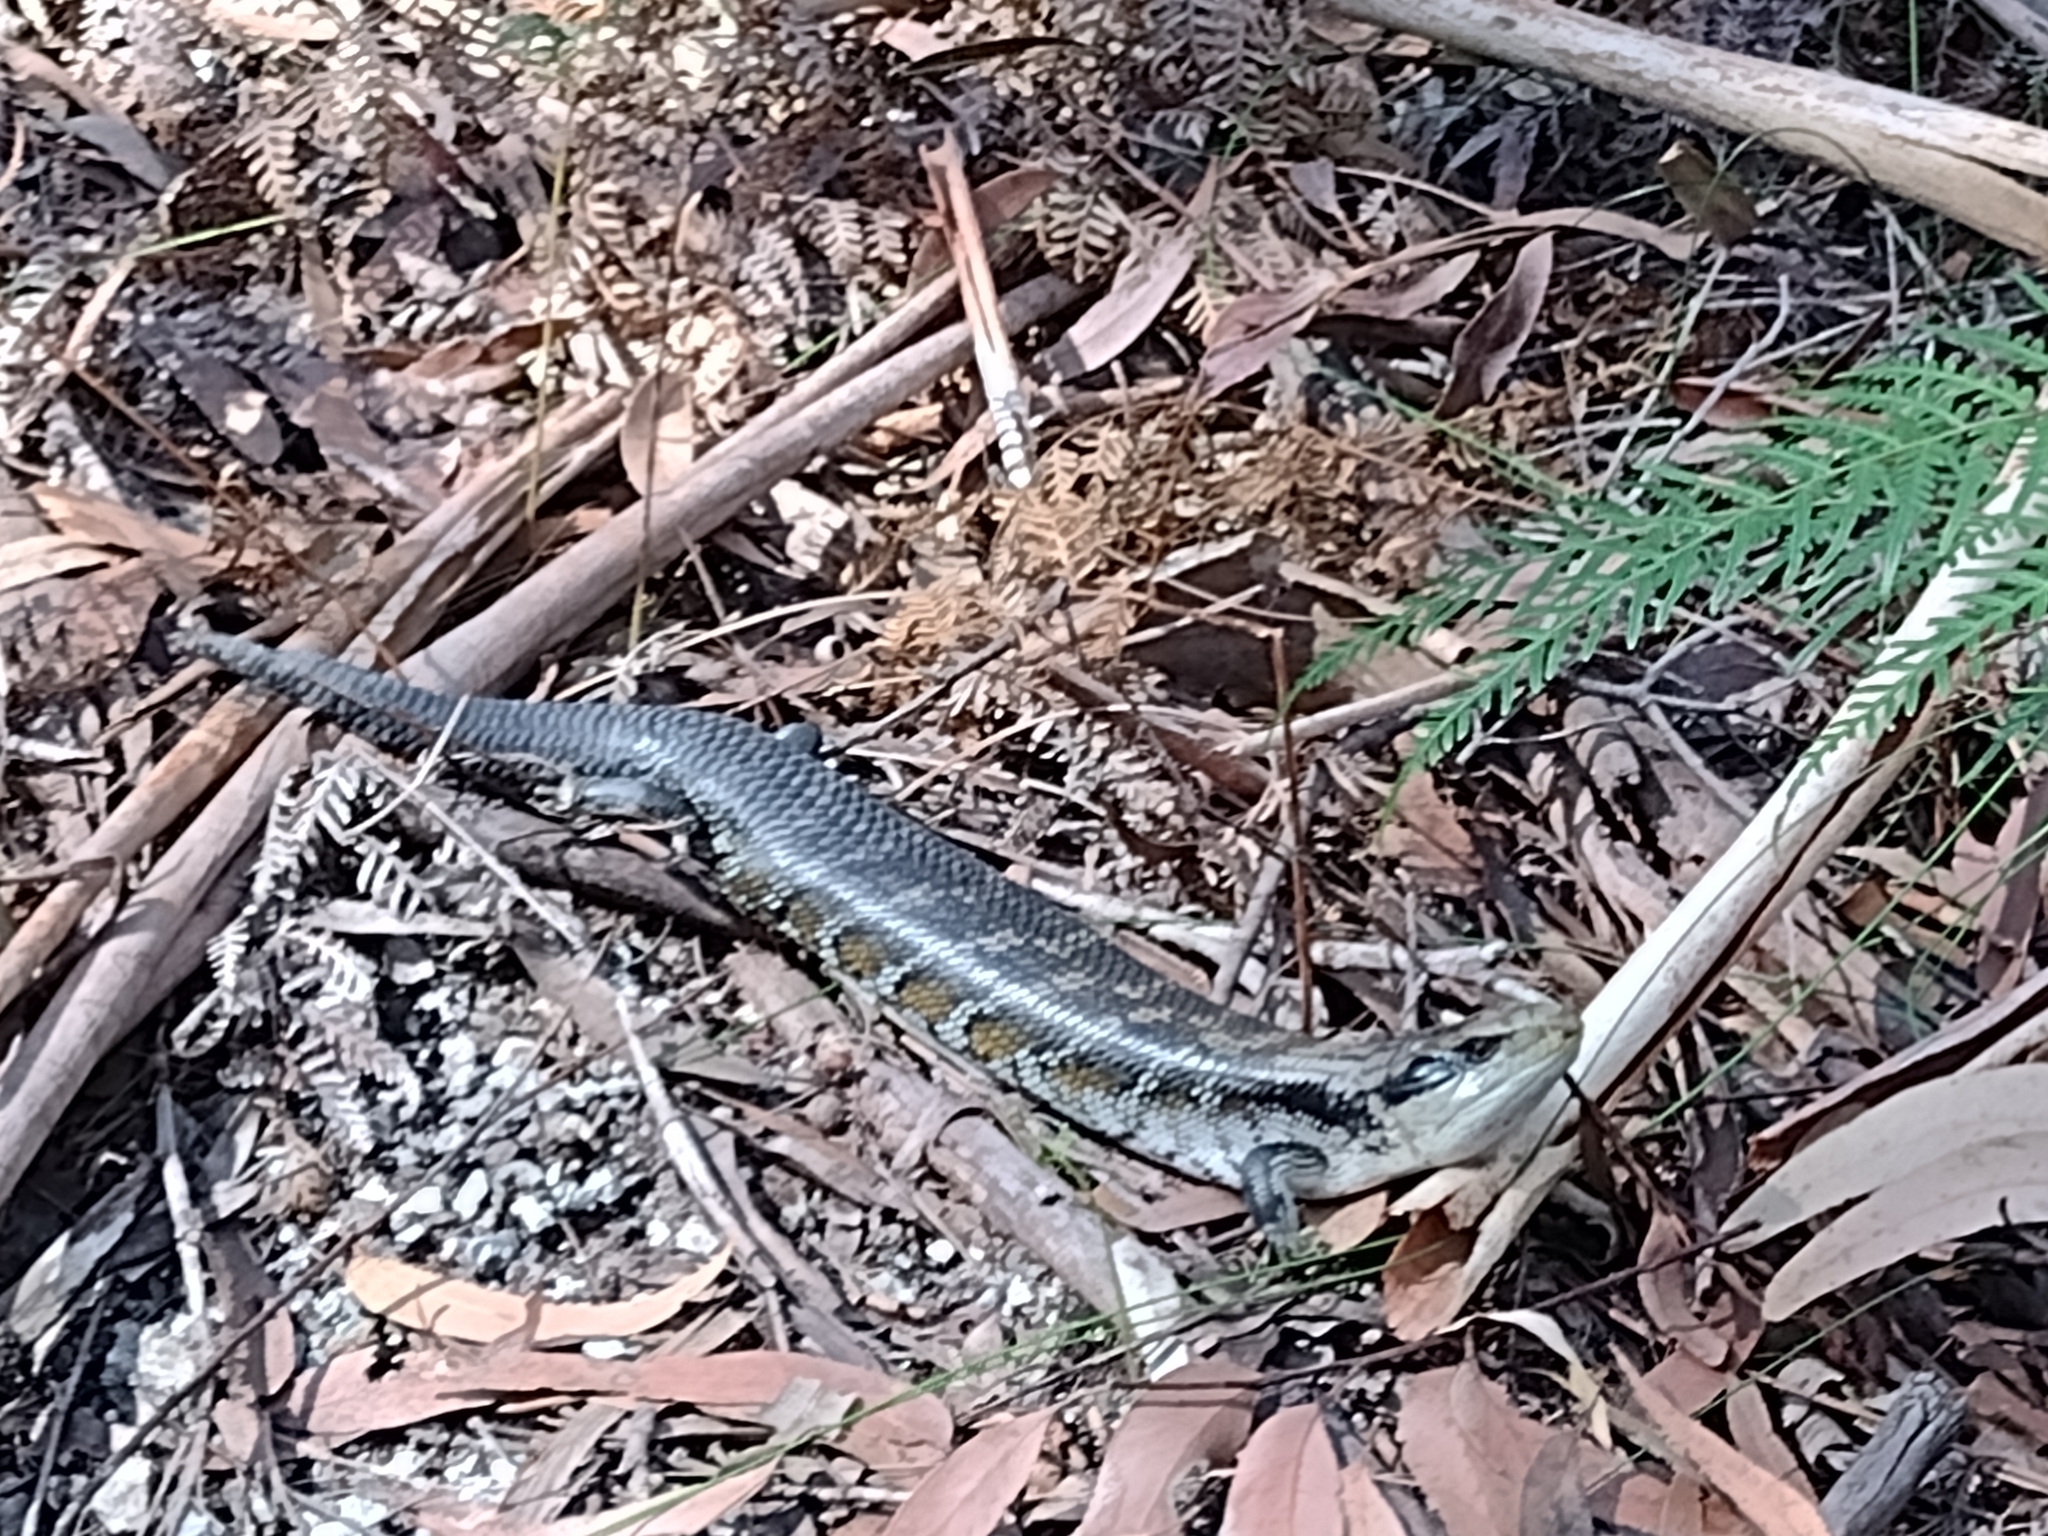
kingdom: Animalia
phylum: Chordata
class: Squamata
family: Scincidae
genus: Tiliqua
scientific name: Tiliqua scincoides
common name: Common bluetongue
